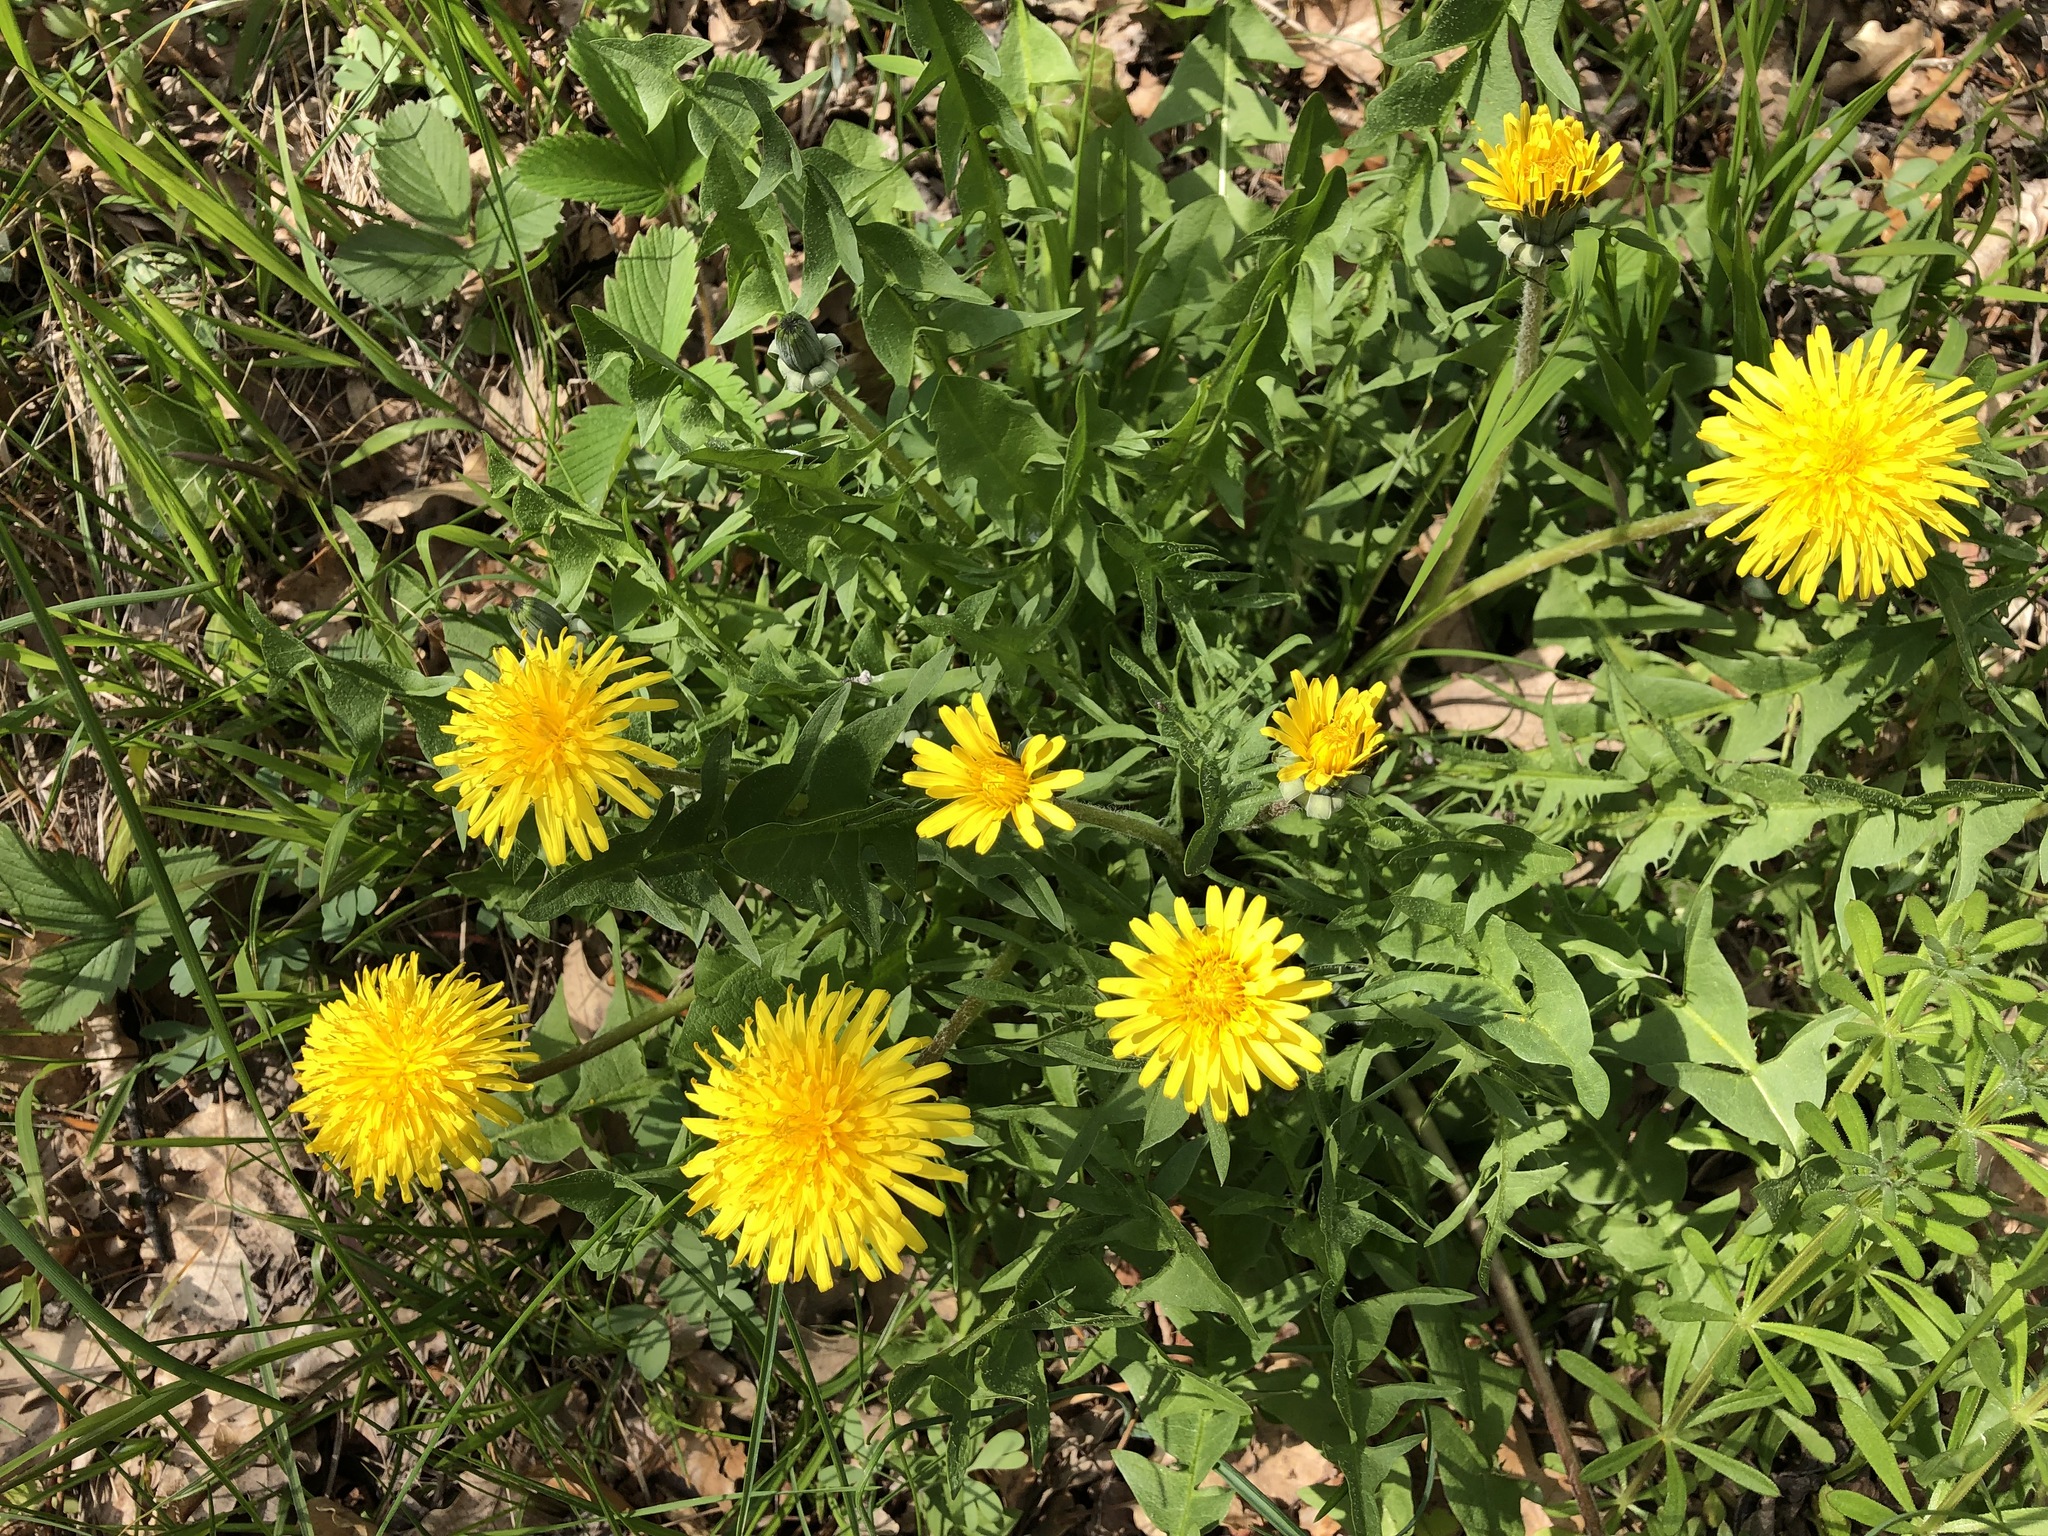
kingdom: Plantae
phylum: Tracheophyta
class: Magnoliopsida
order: Asterales
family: Asteraceae
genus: Taraxacum
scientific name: Taraxacum officinale
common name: Common dandelion
